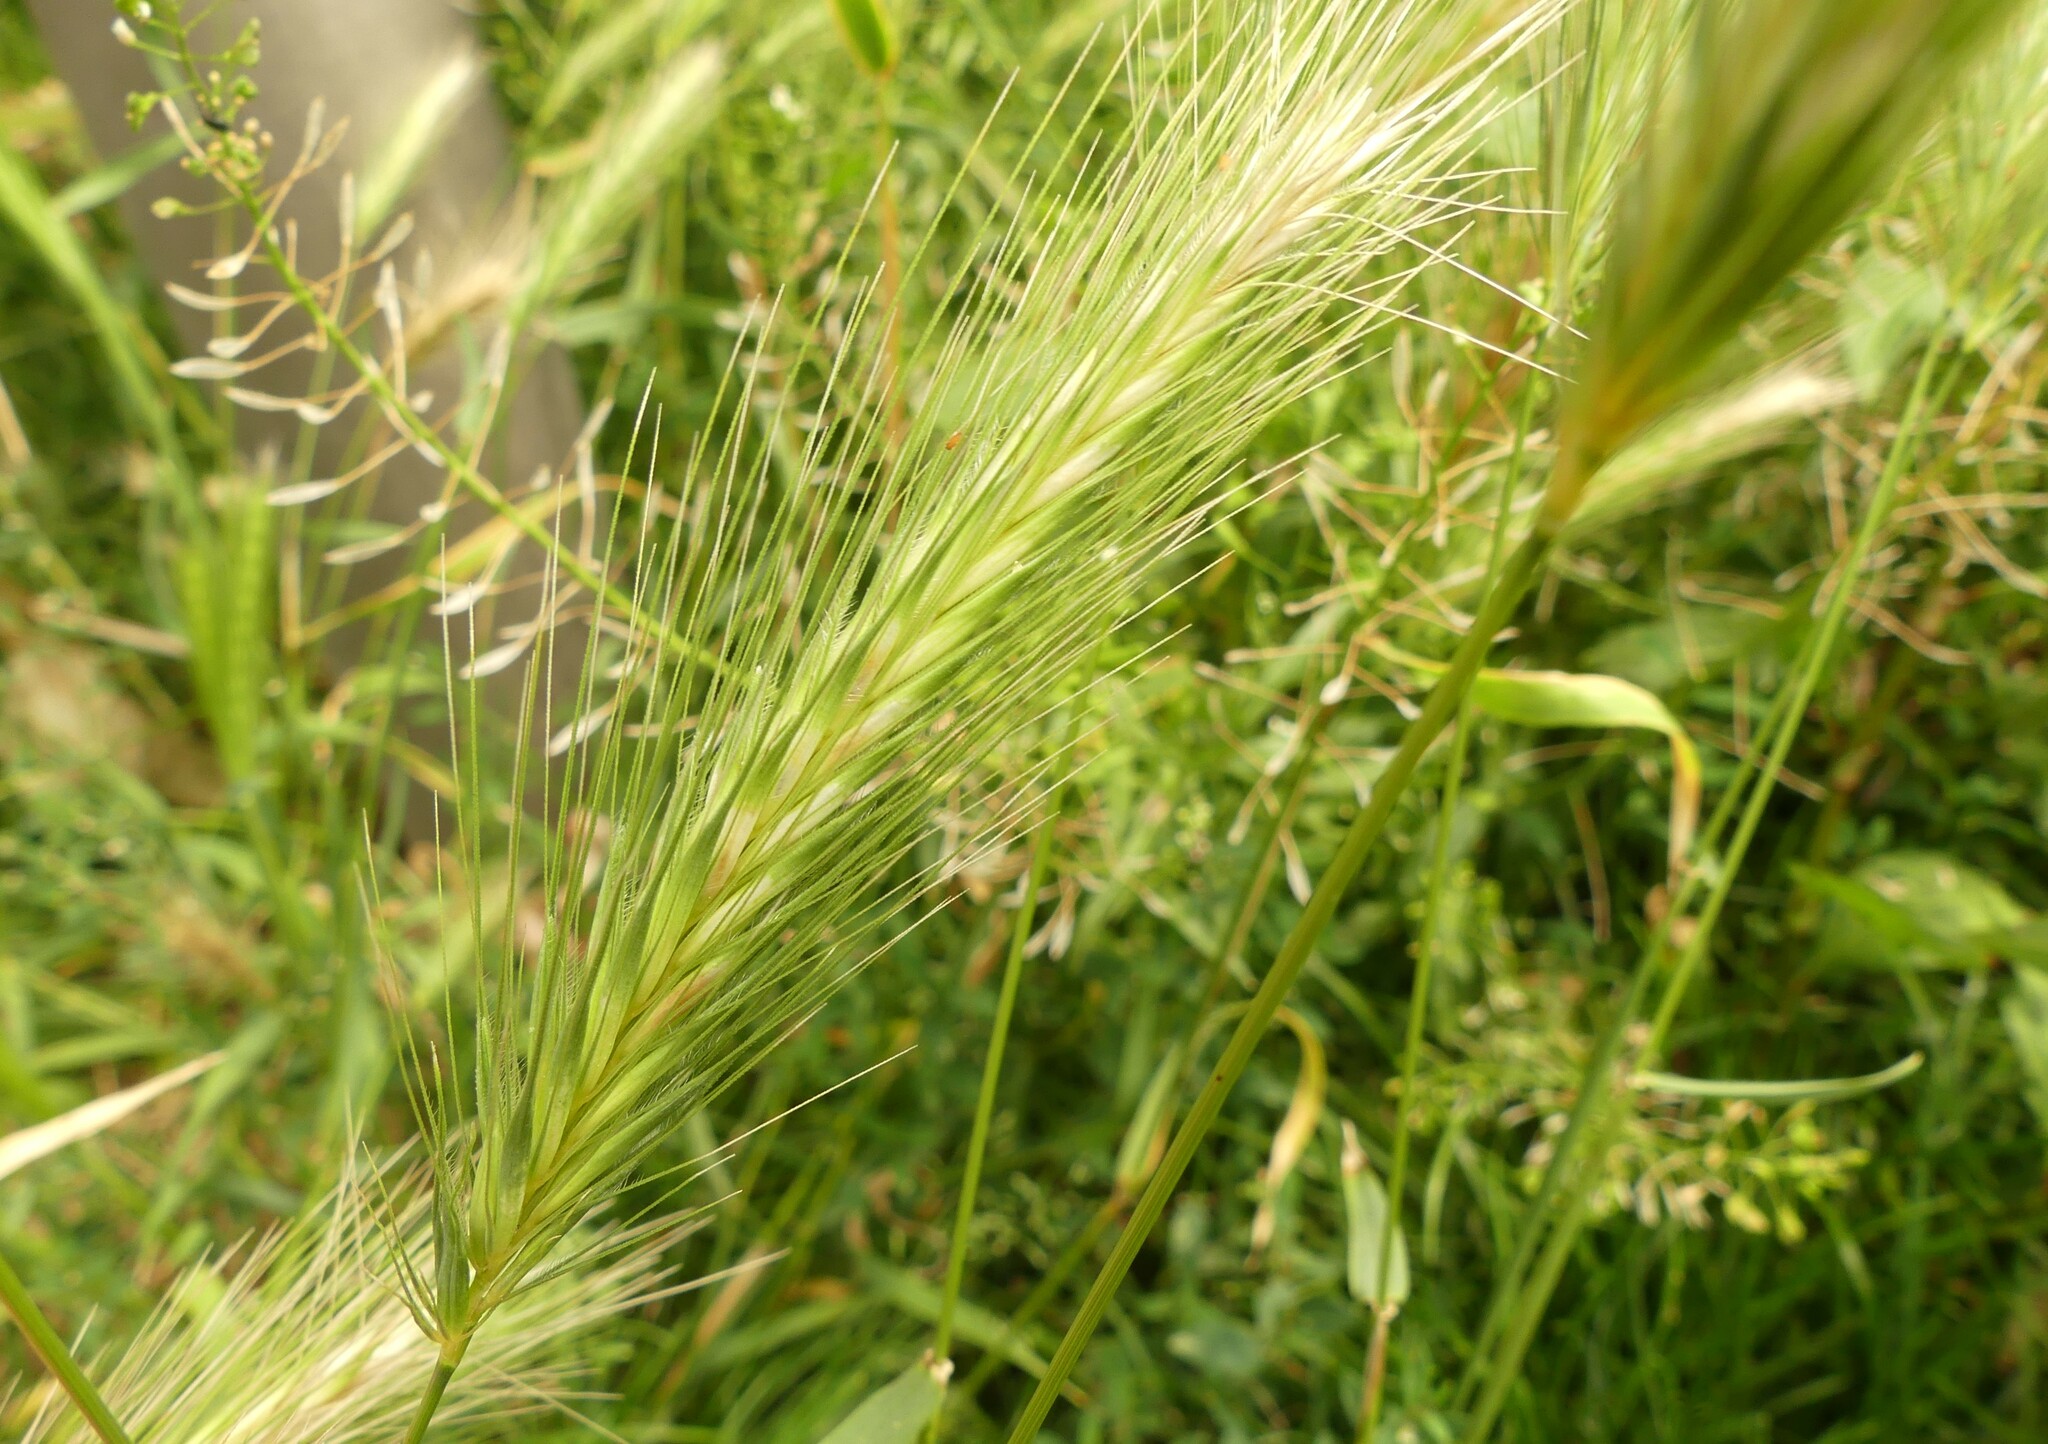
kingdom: Plantae
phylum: Tracheophyta
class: Liliopsida
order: Poales
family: Poaceae
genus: Hordeum
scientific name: Hordeum murinum
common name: Wall barley
